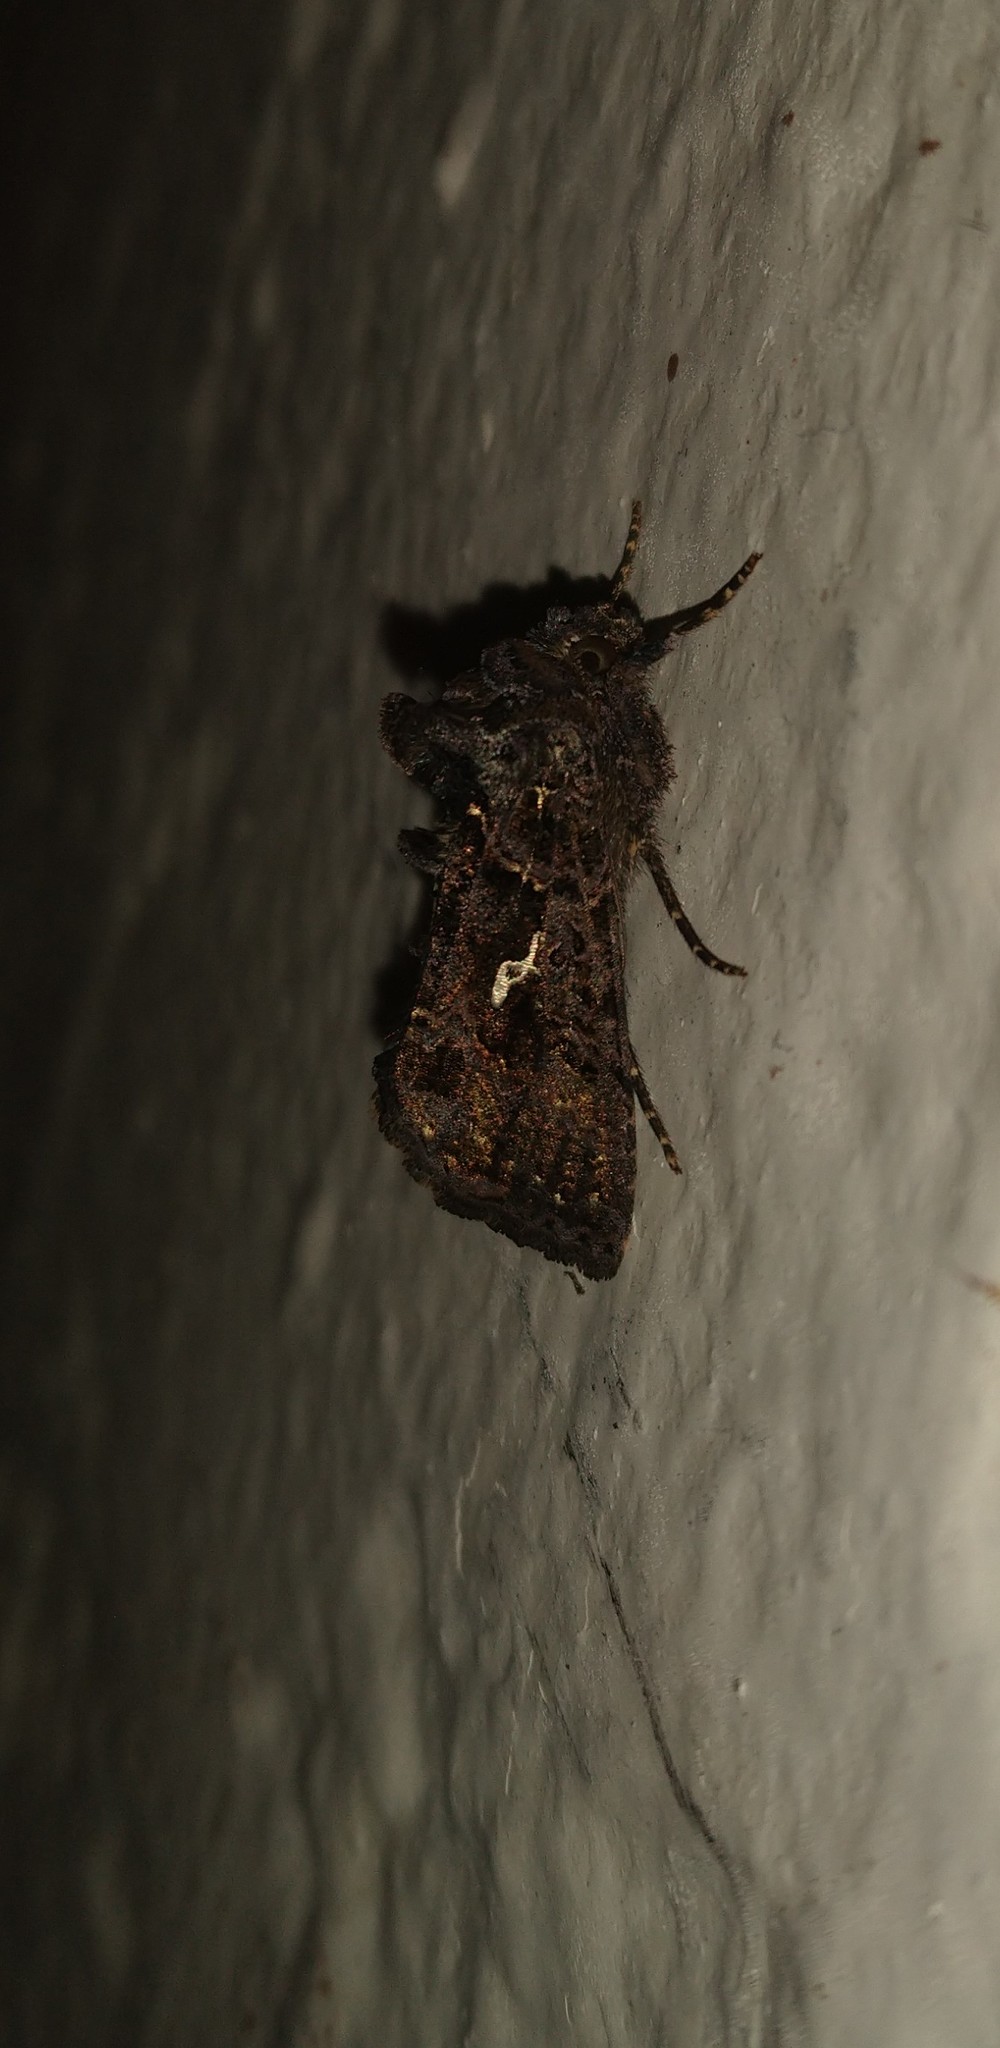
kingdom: Animalia
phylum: Arthropoda
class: Insecta
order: Lepidoptera
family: Noctuidae
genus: Ctenoplusia
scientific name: Ctenoplusia limbirena
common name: Scar bank gem
